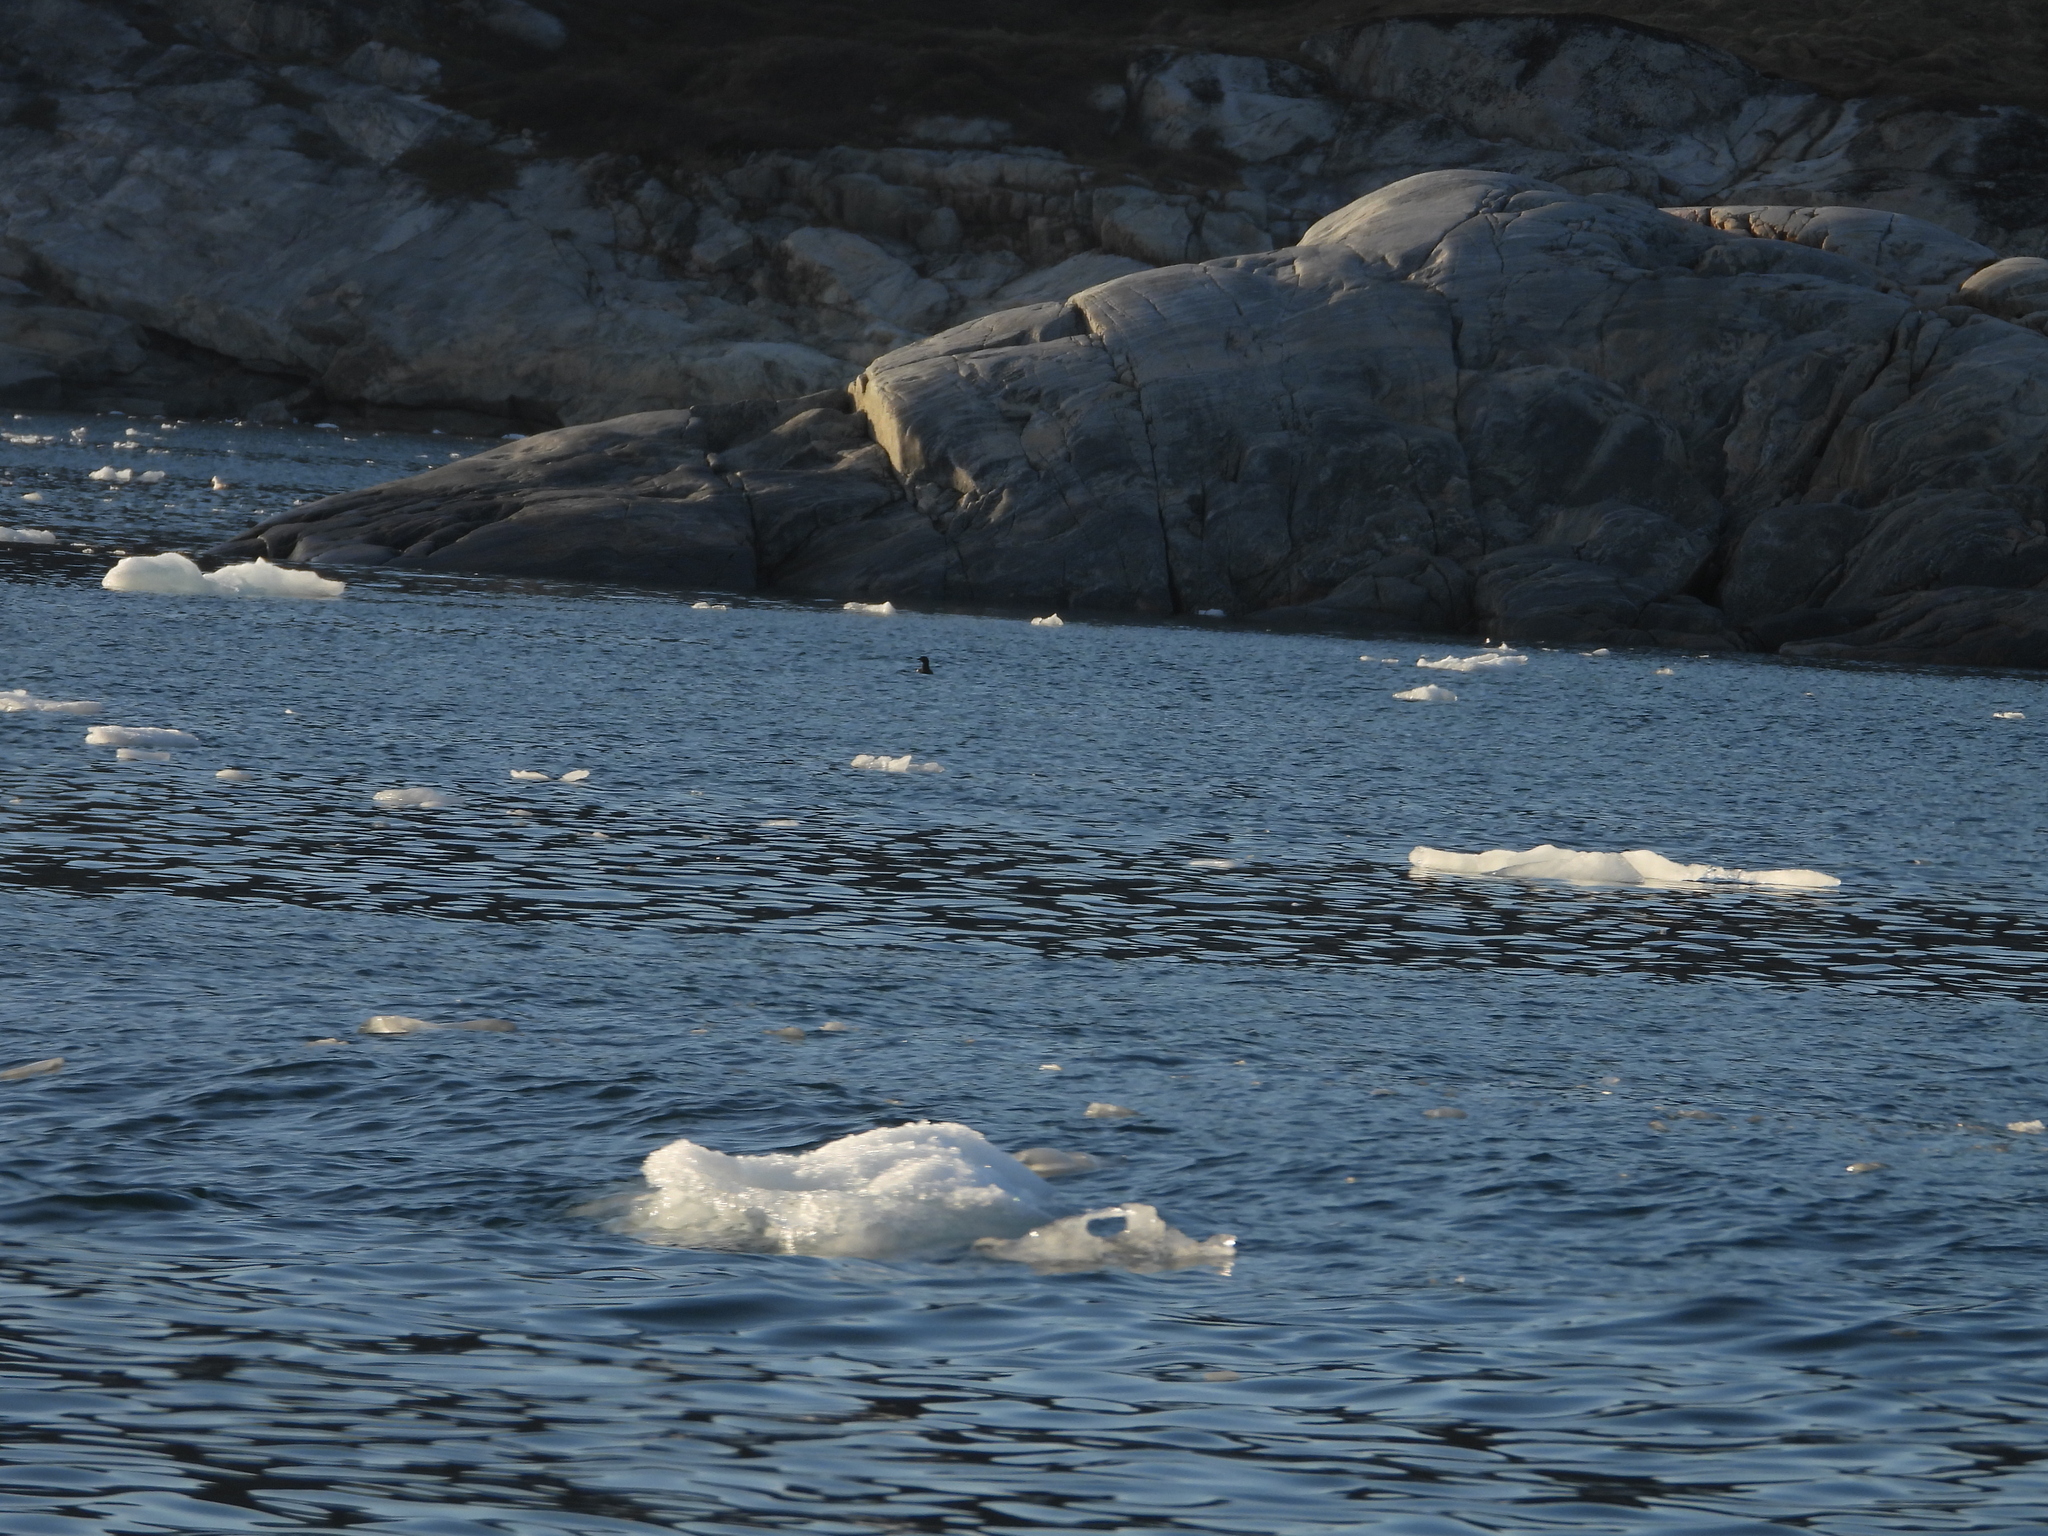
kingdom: Animalia
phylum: Chordata
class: Aves
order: Charadriiformes
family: Alcidae
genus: Cepphus
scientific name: Cepphus grylle
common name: Black guillemot
